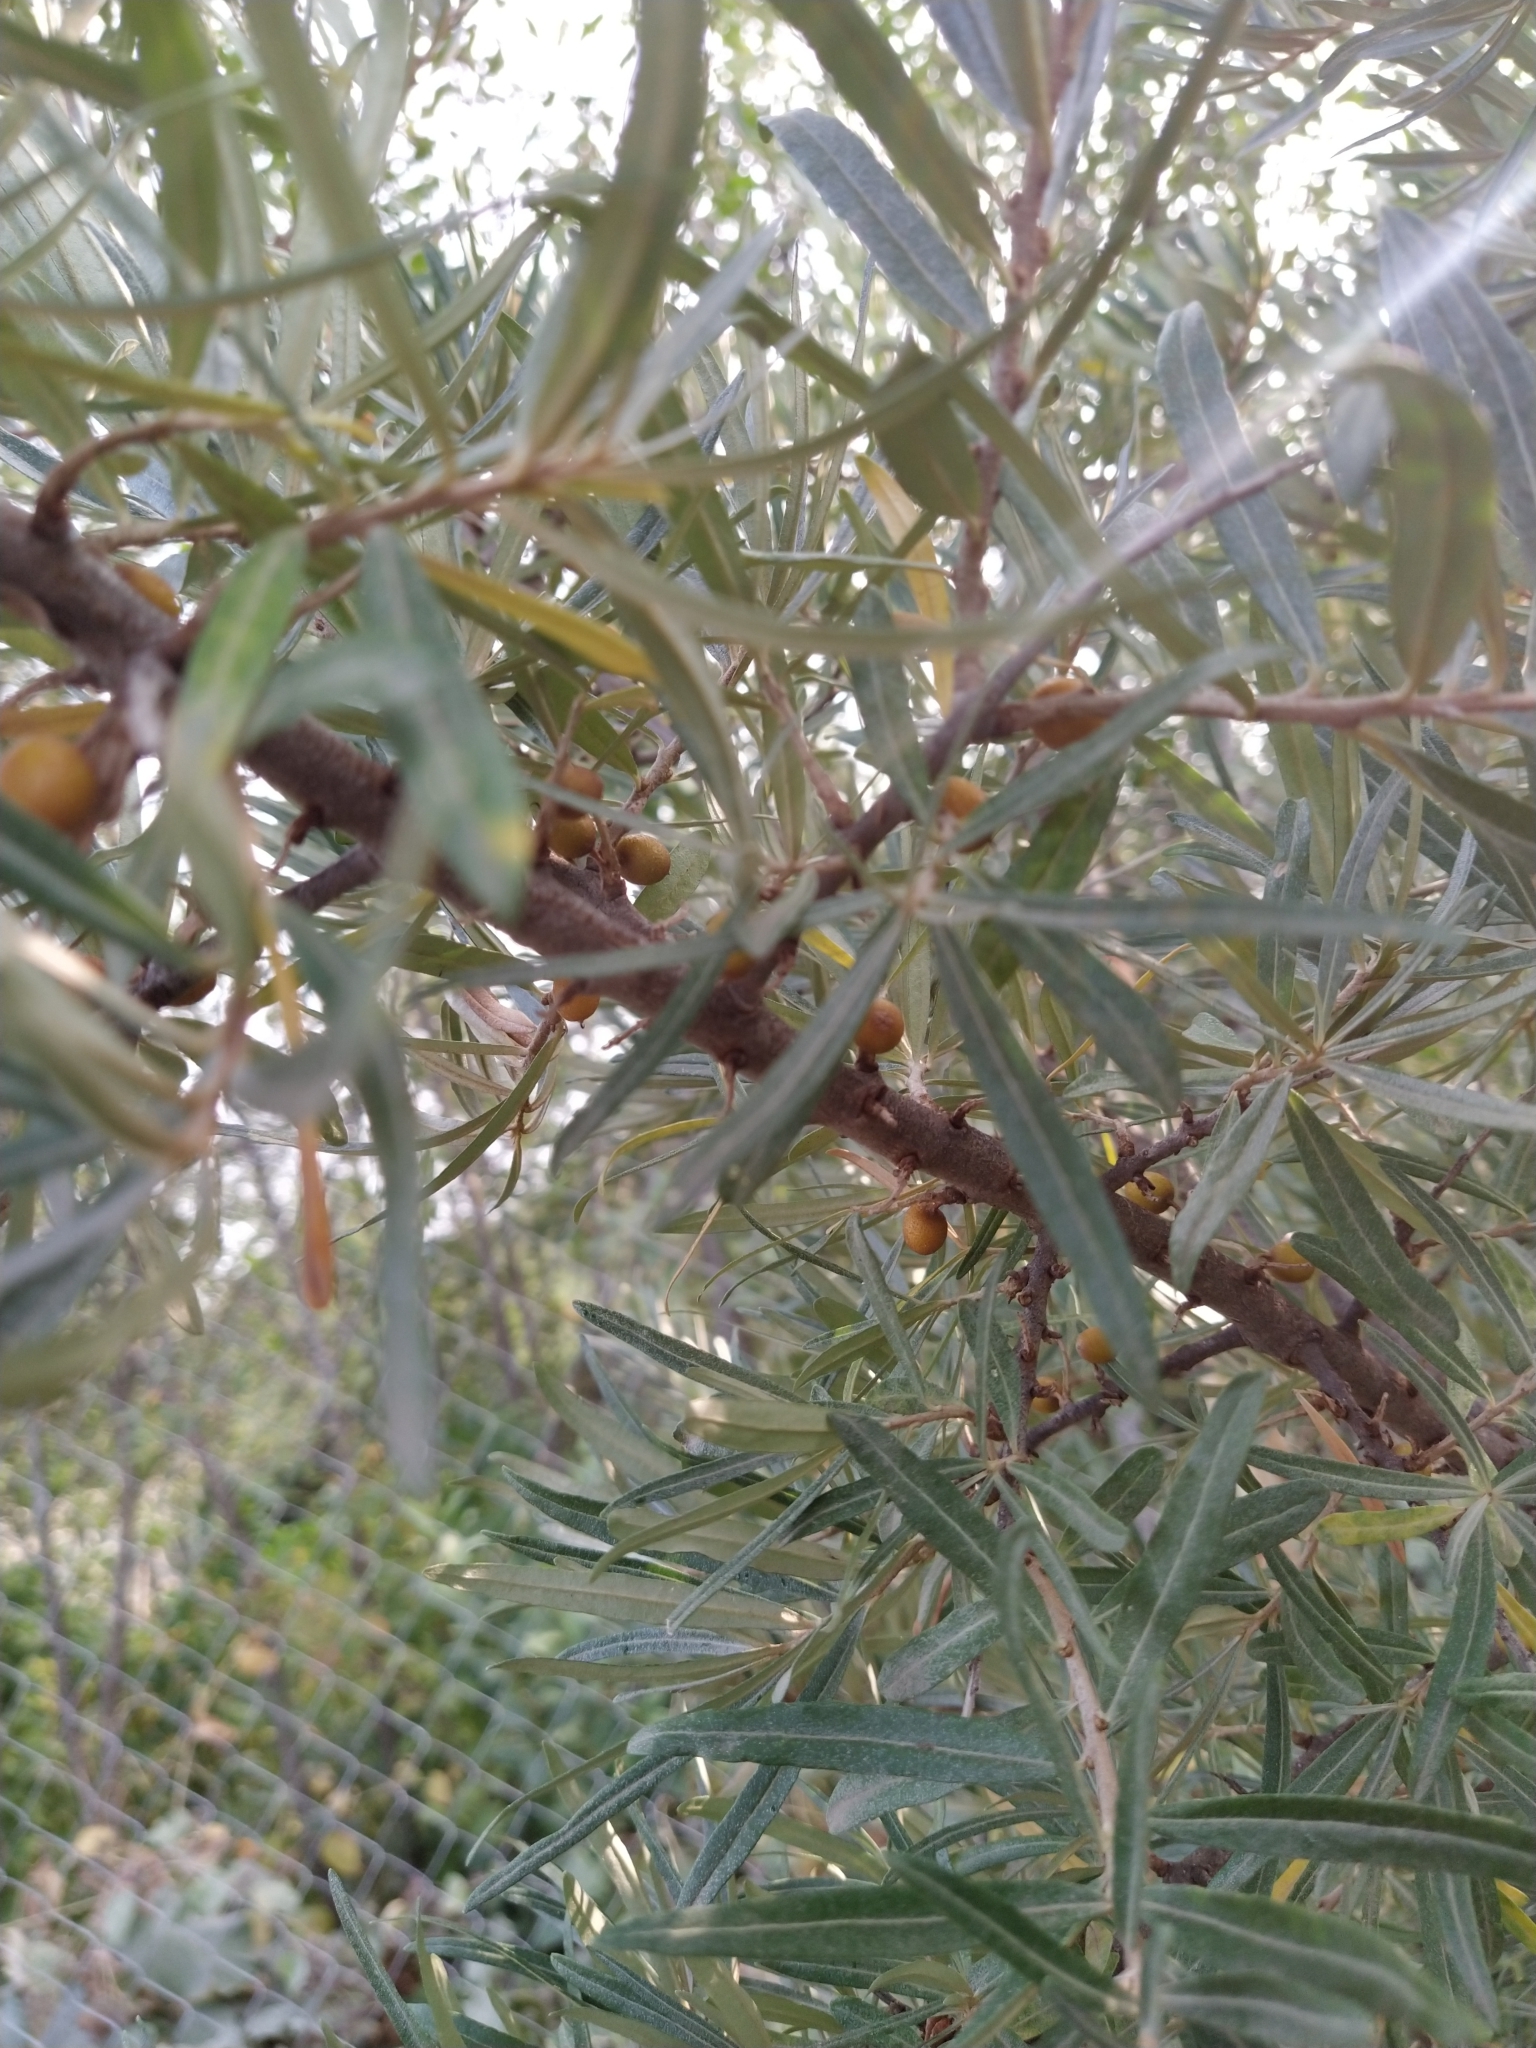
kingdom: Plantae
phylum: Tracheophyta
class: Magnoliopsida
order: Rosales
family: Elaeagnaceae
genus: Hippophae
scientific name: Hippophae rhamnoides
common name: Sea-buckthorn
